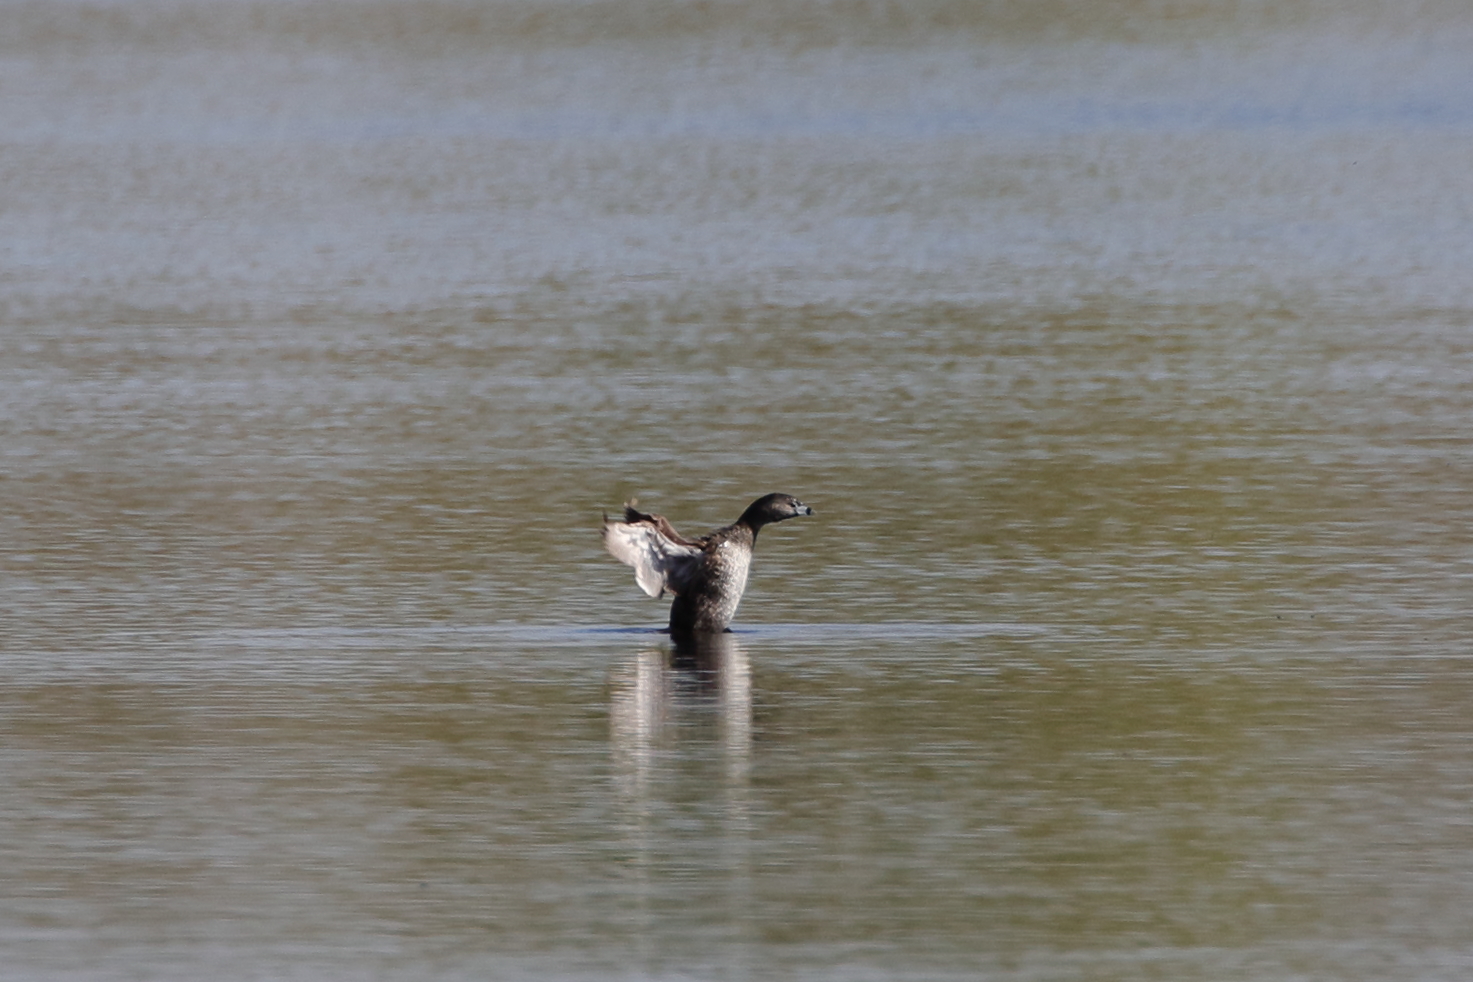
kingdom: Animalia
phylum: Chordata
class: Aves
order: Podicipediformes
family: Podicipedidae
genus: Podilymbus
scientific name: Podilymbus podiceps
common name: Pied-billed grebe
